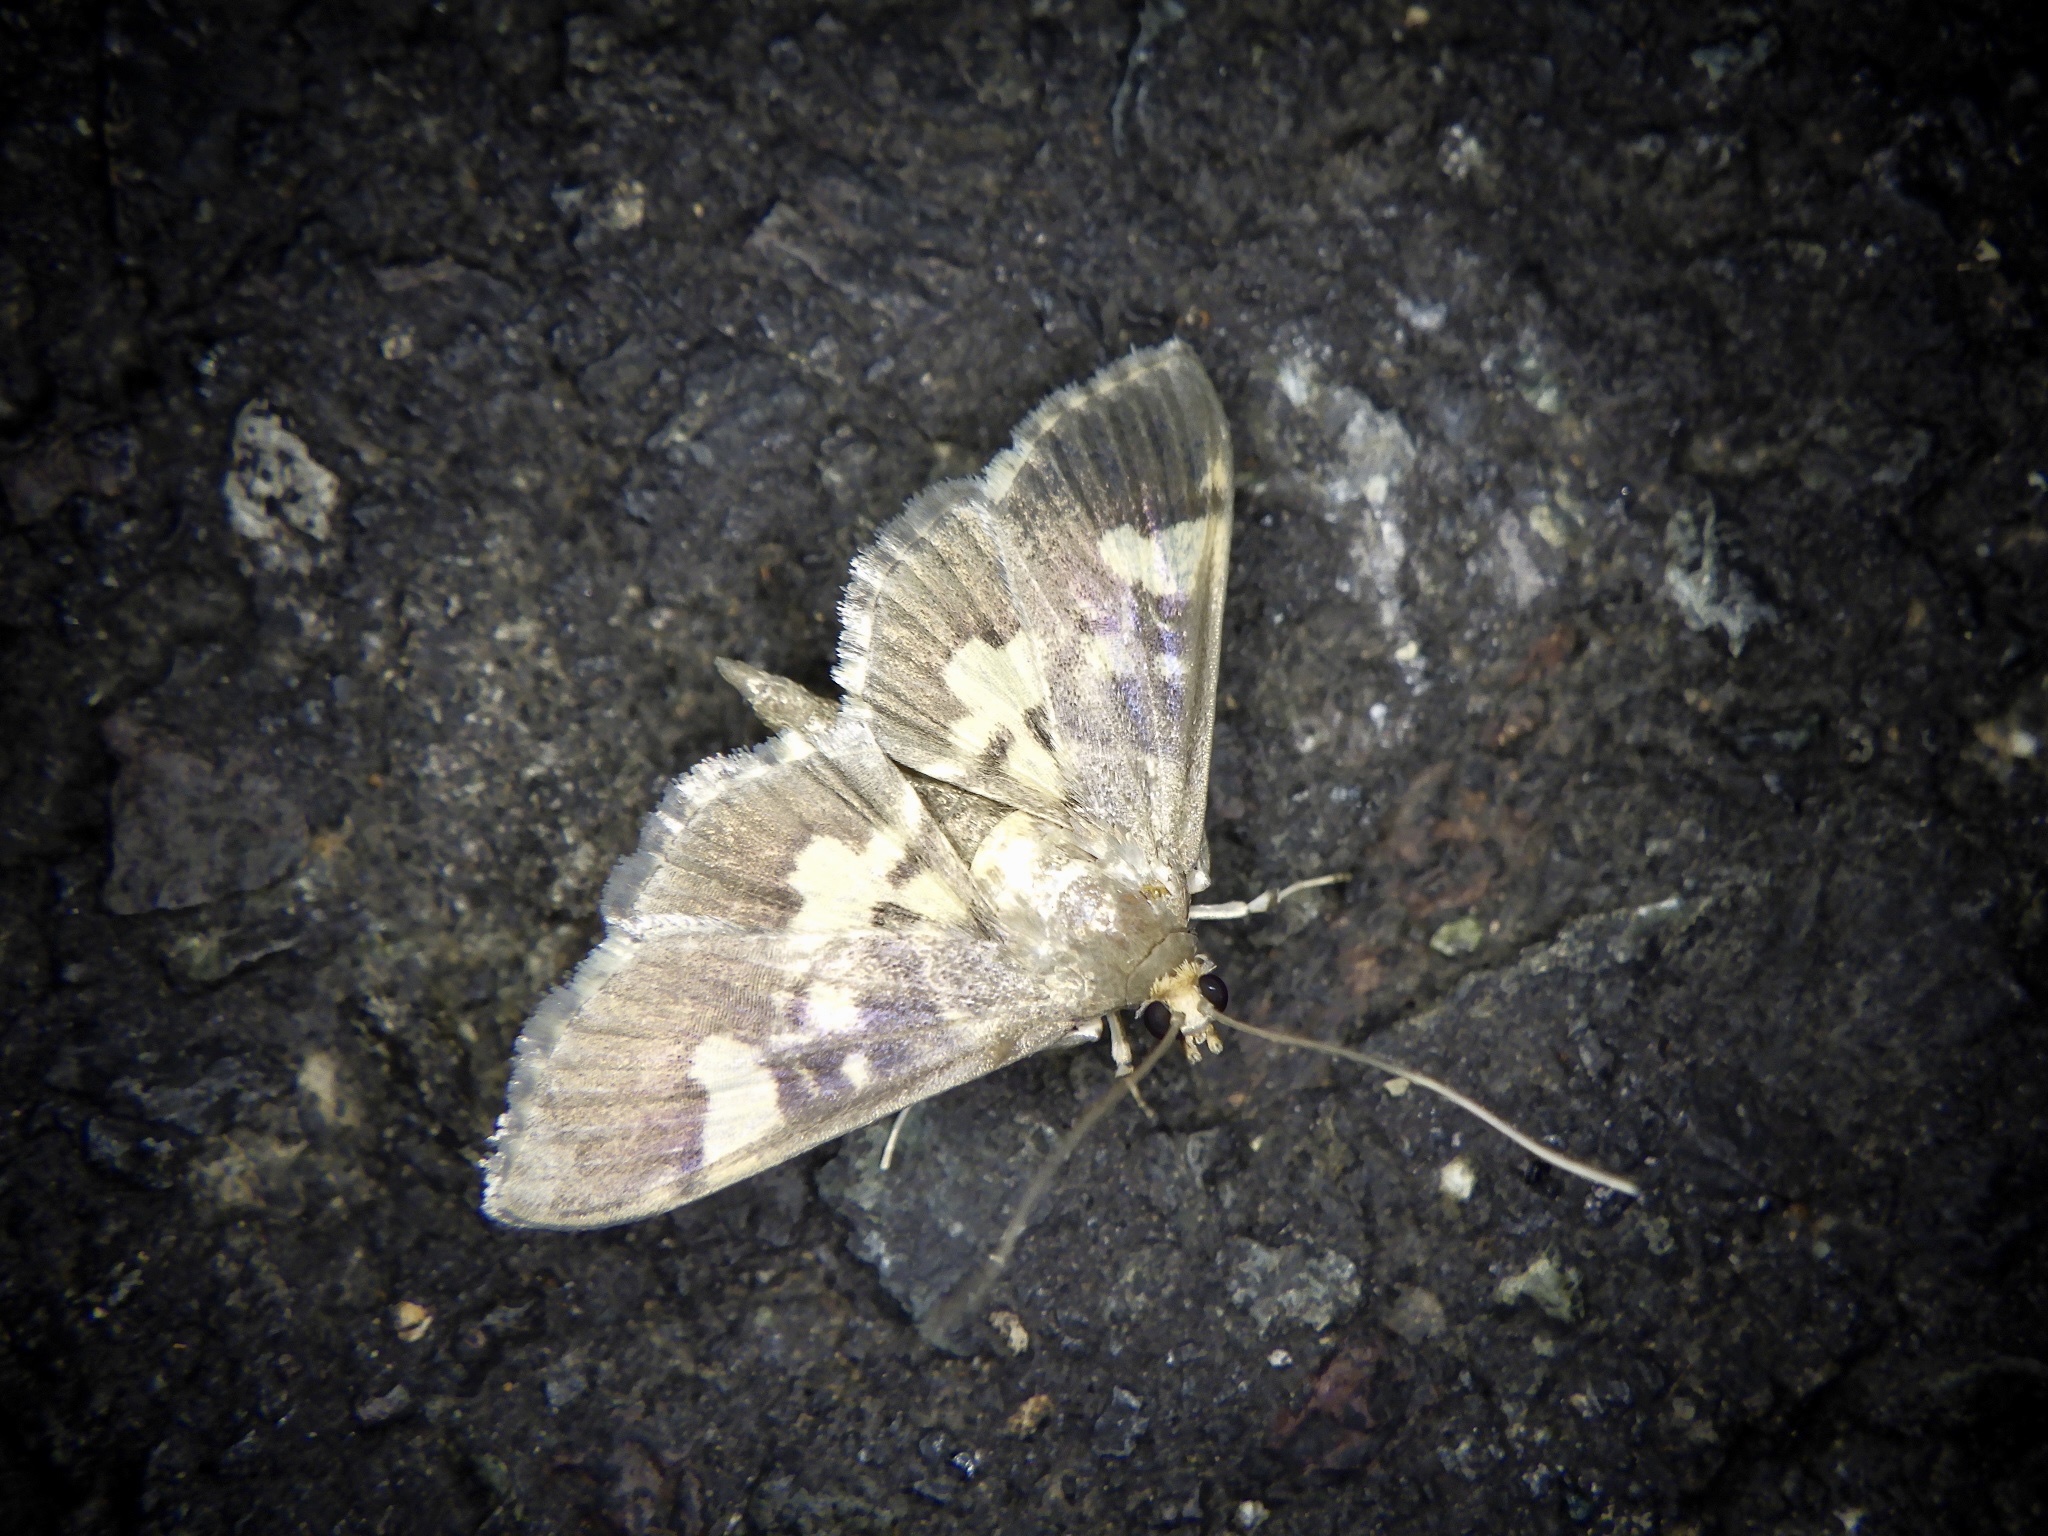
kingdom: Animalia
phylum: Arthropoda
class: Insecta
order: Lepidoptera
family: Crambidae
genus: Uresiphita
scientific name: Uresiphita dissipatalis
